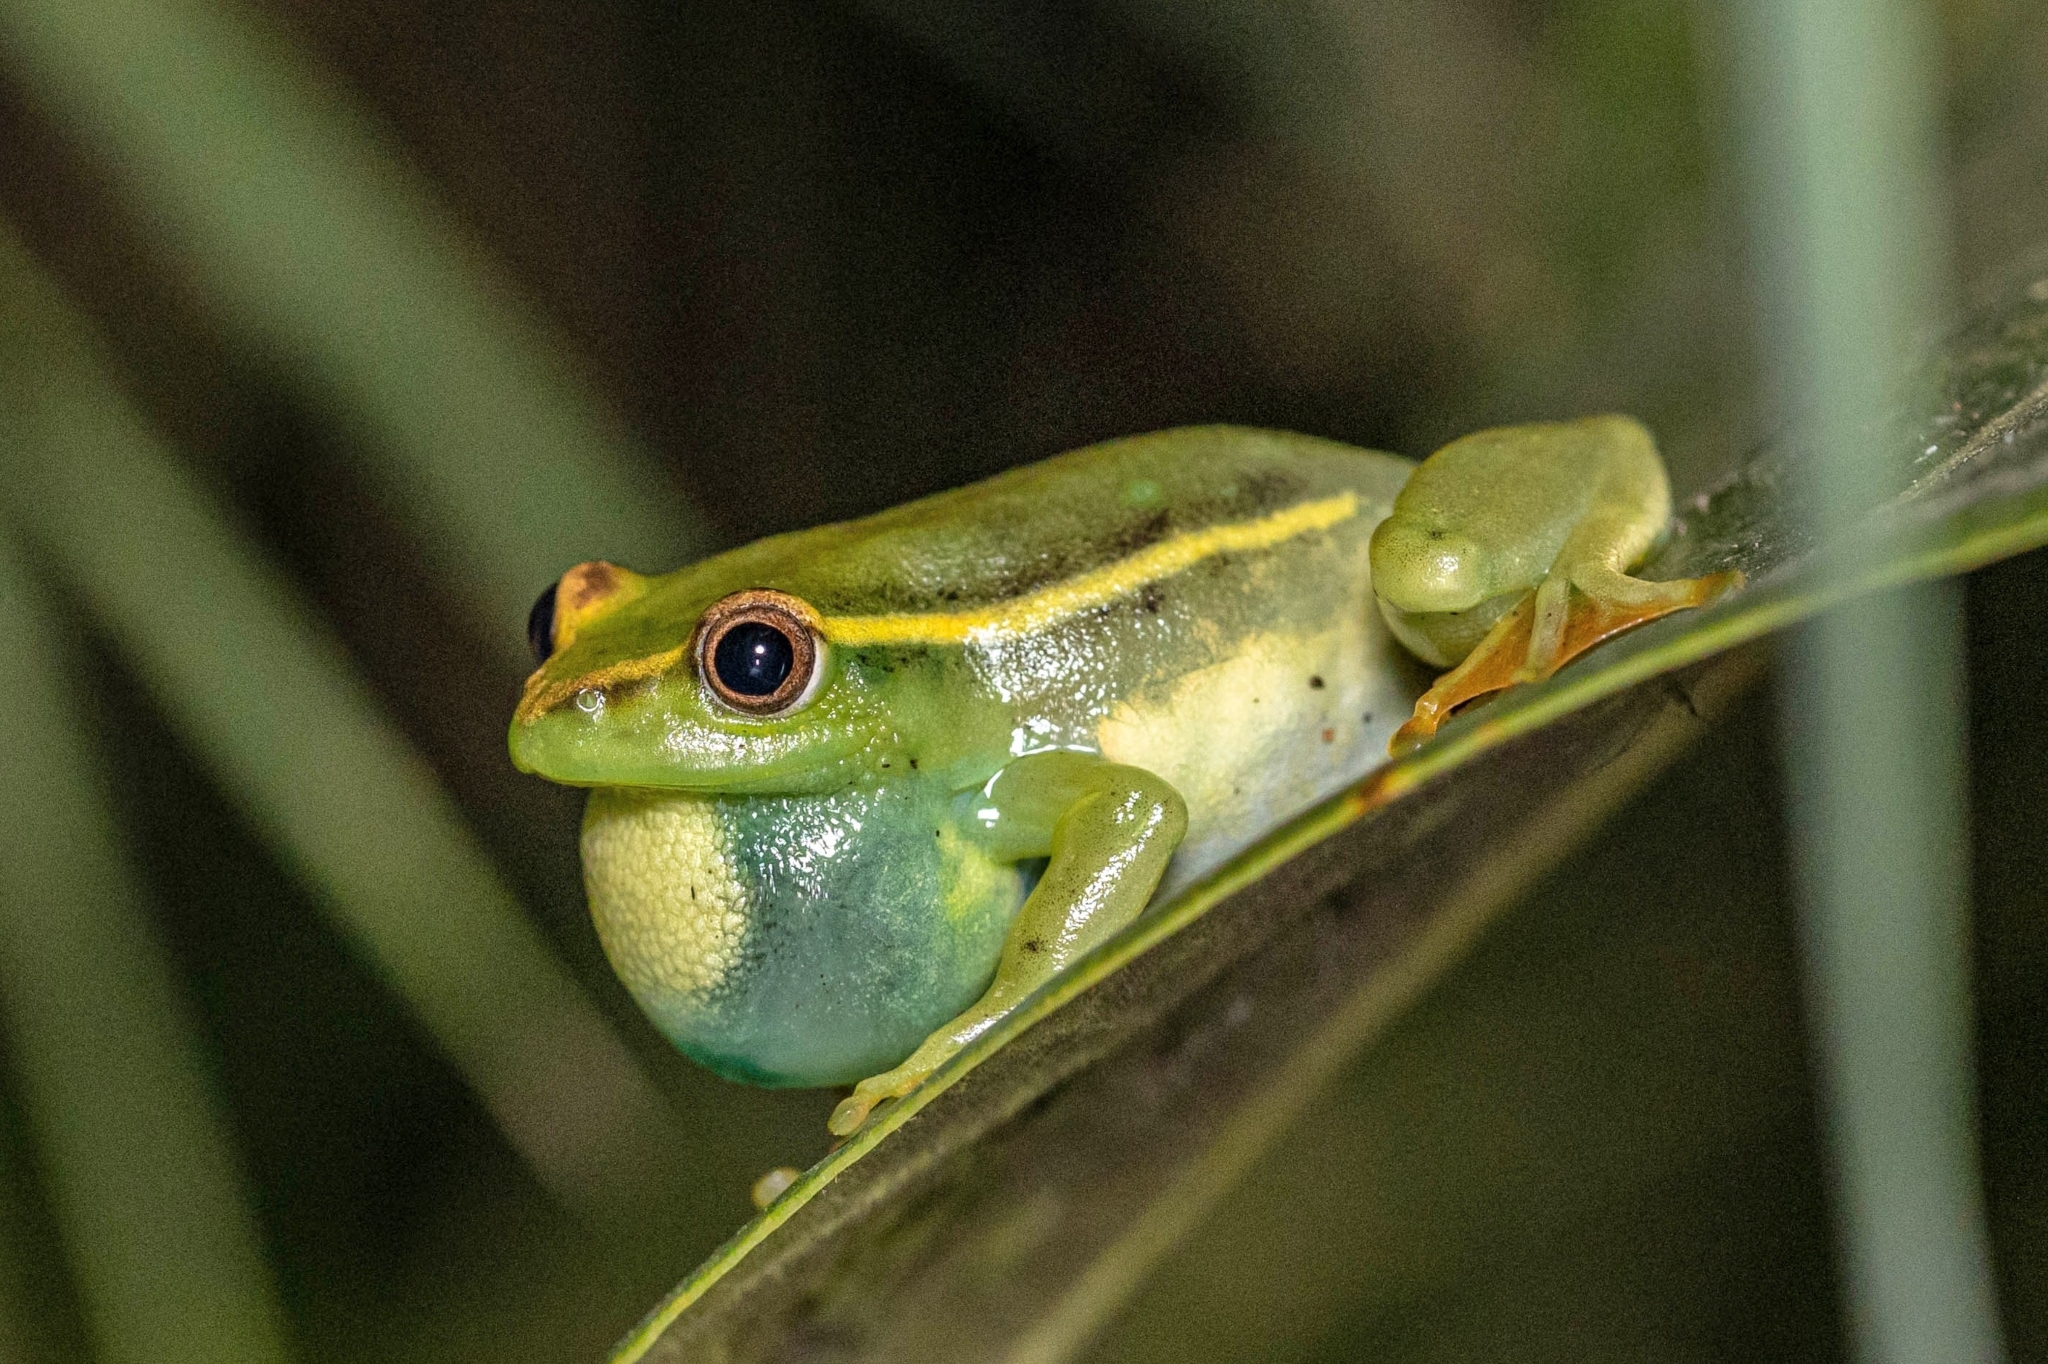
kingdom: Animalia
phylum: Chordata
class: Amphibia
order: Anura
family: Hyperoliidae
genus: Hyperolius
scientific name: Hyperolius argus
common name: Argus reed frog
